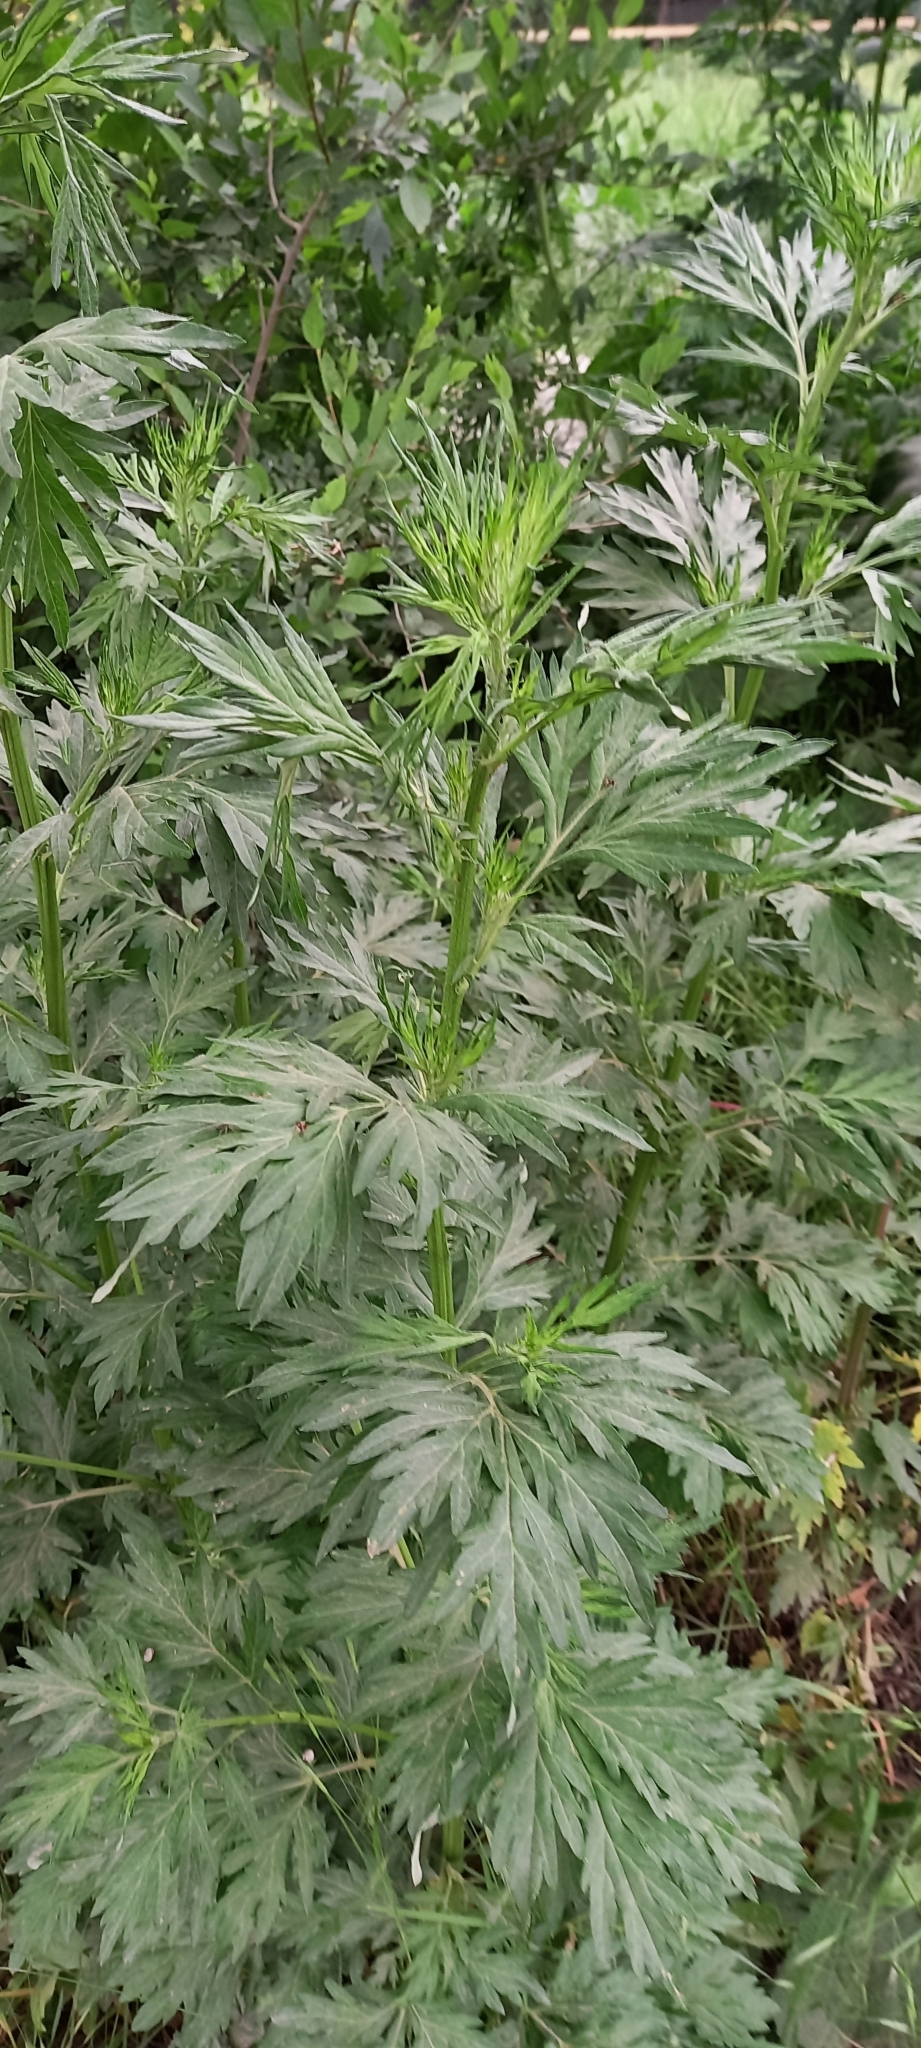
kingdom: Plantae
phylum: Tracheophyta
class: Magnoliopsida
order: Asterales
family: Asteraceae
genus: Artemisia
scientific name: Artemisia vulgaris
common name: Mugwort
